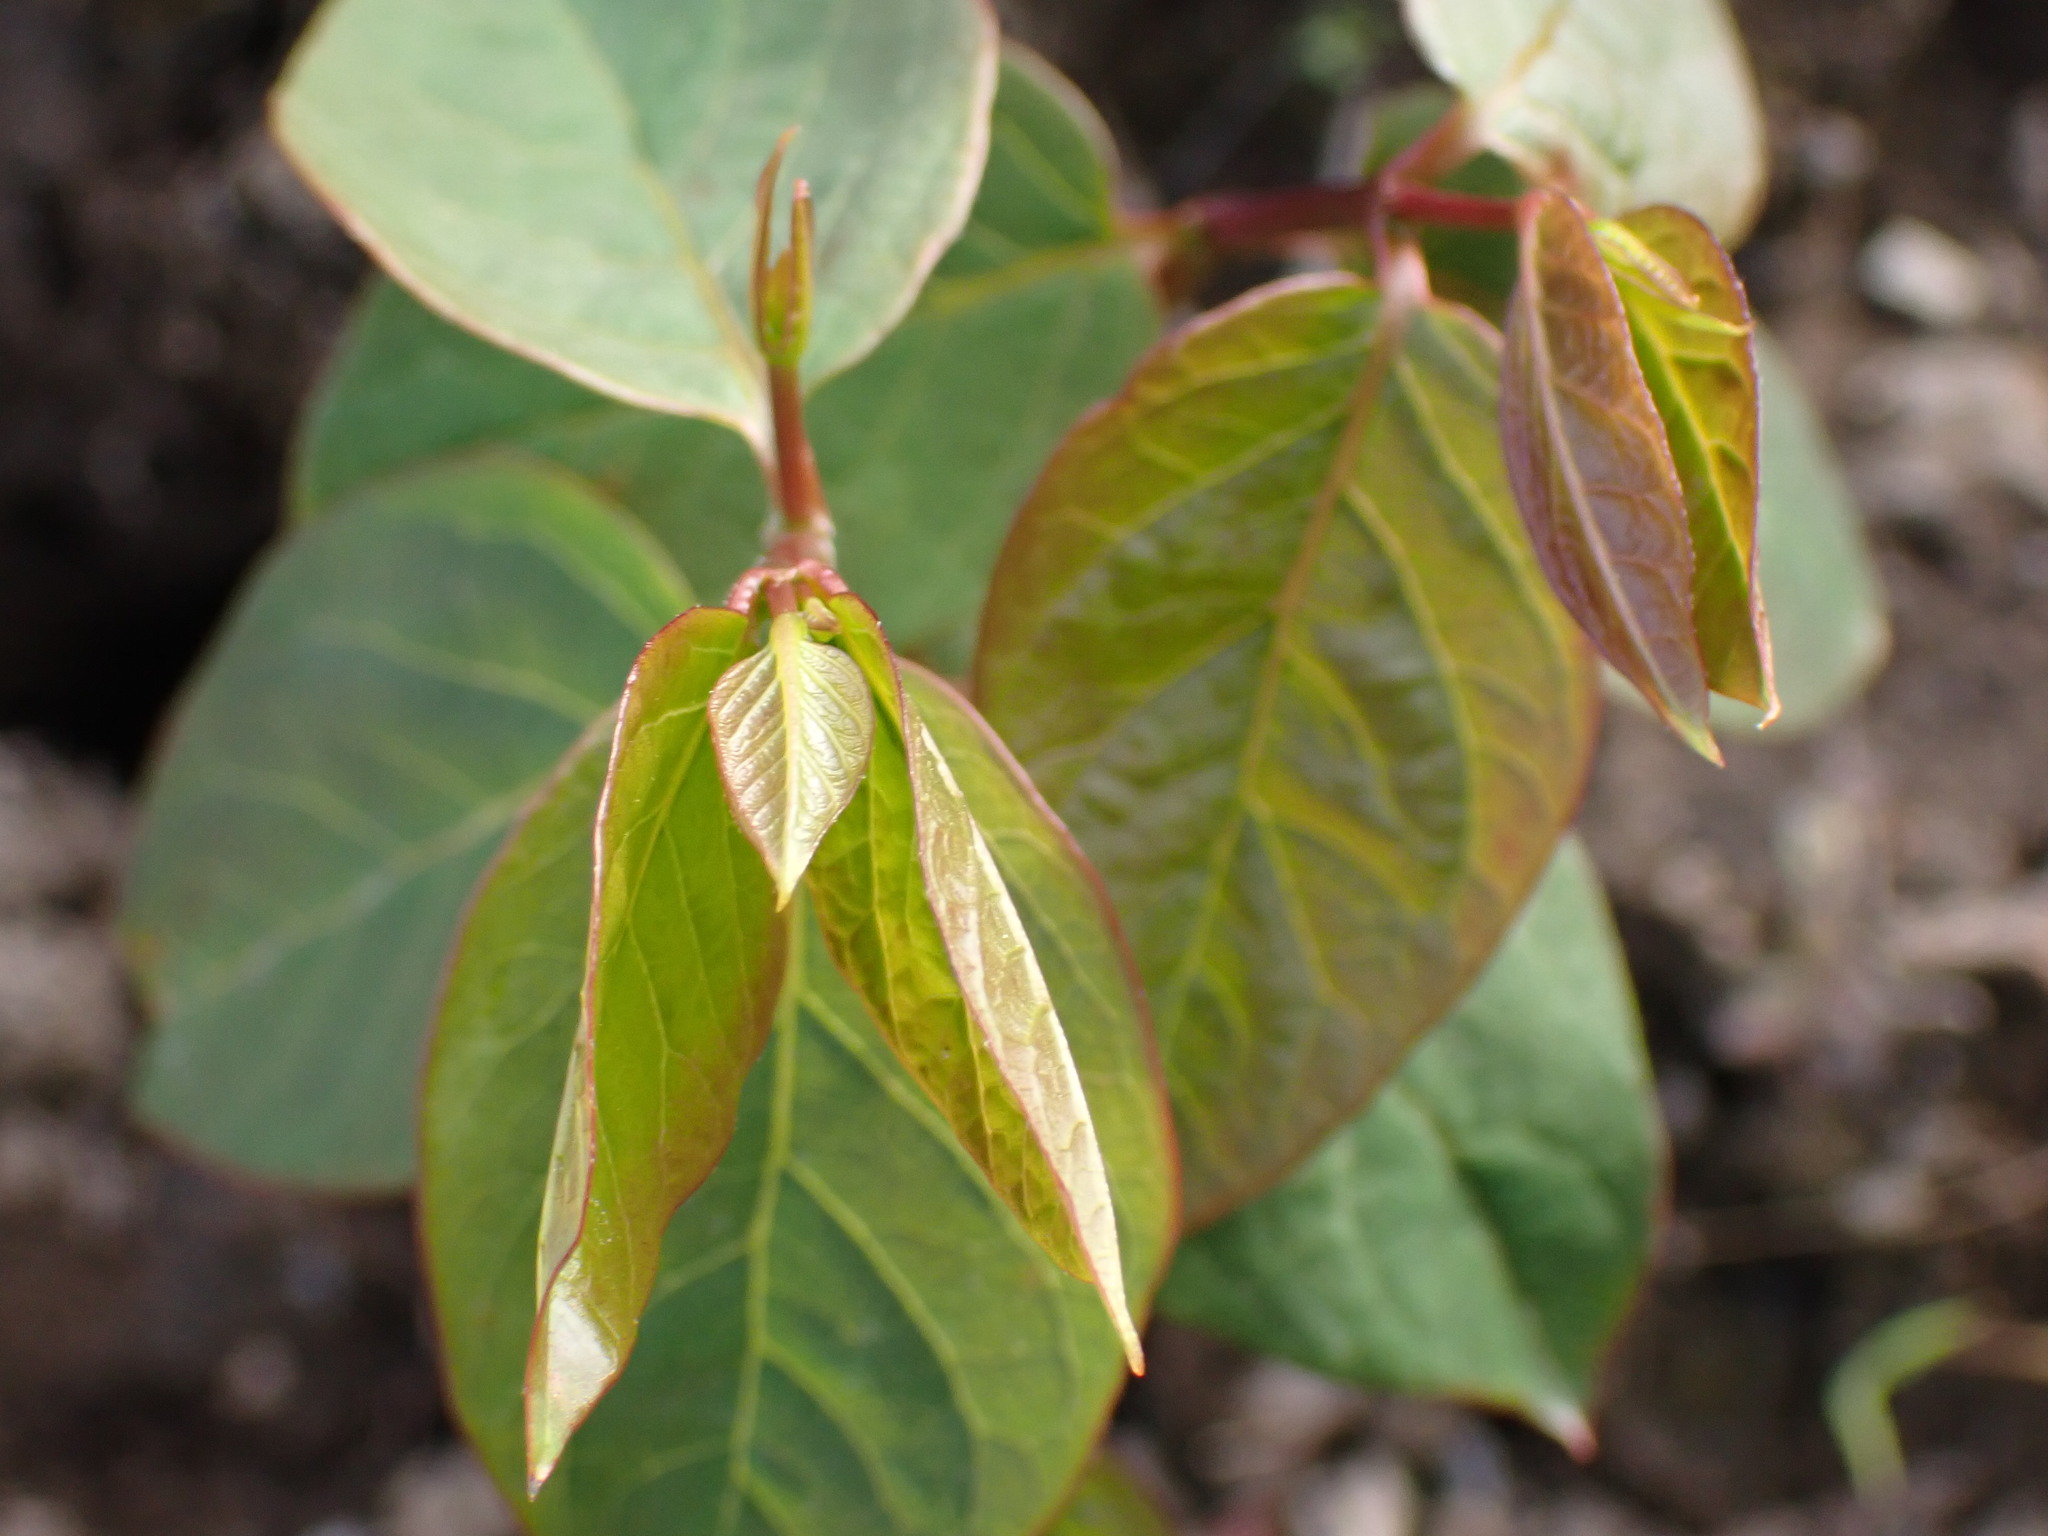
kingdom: Plantae
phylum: Tracheophyta
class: Magnoliopsida
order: Gentianales
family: Apocynaceae
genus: Apocynum
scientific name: Apocynum androsaemifolium
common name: Spreading dogbane
